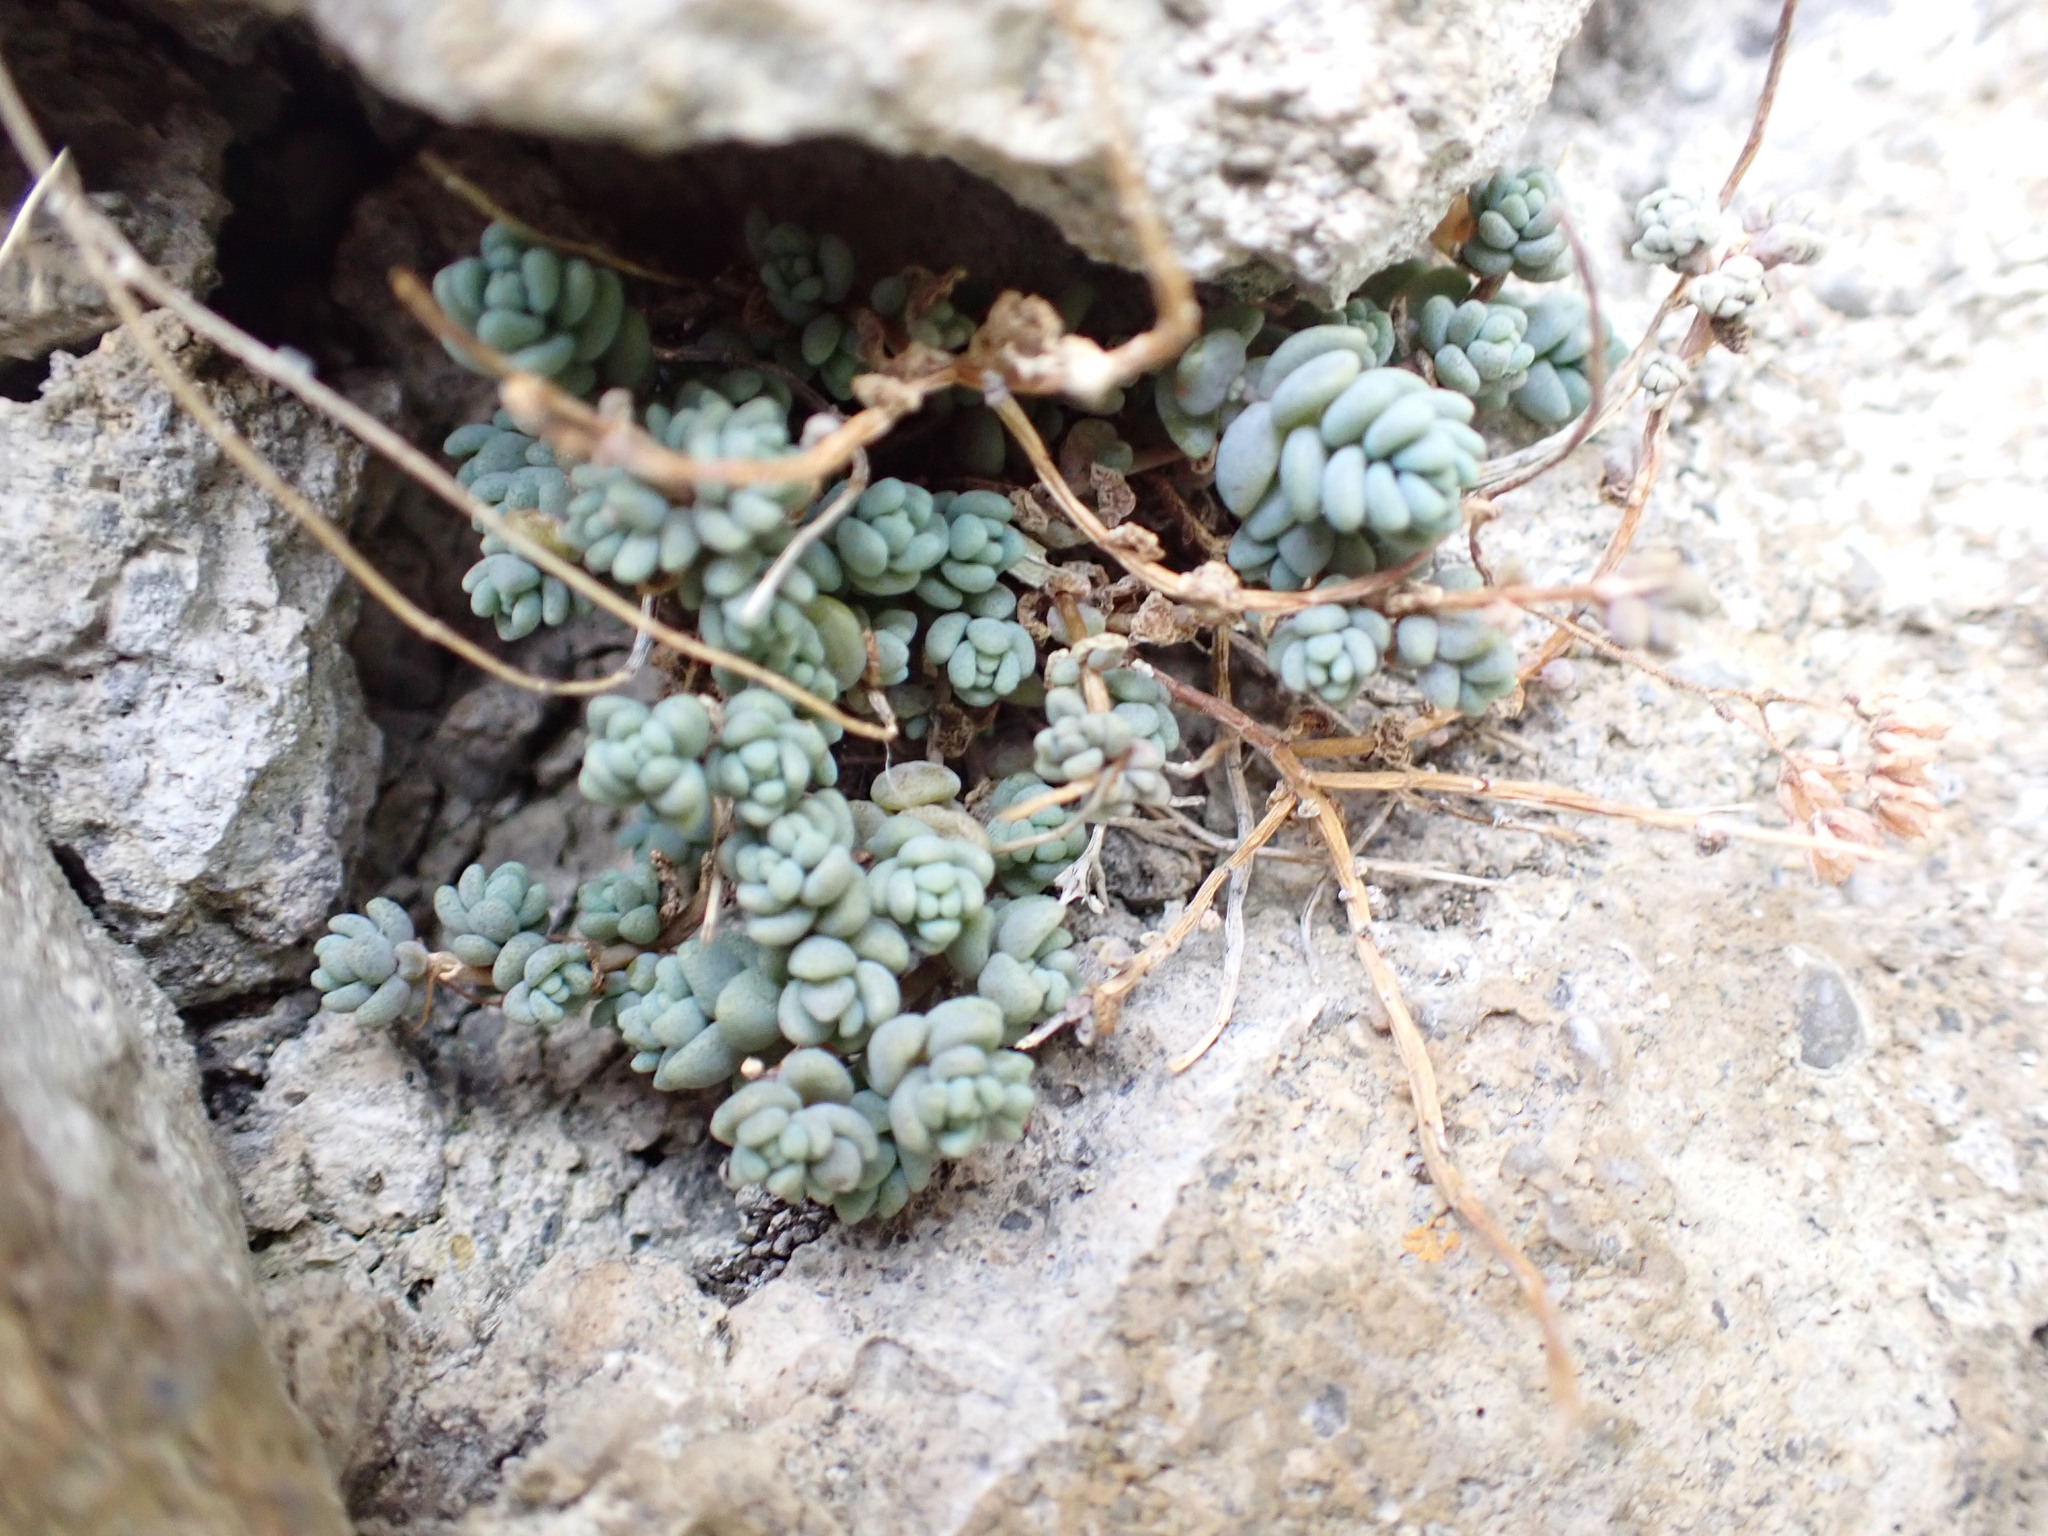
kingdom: Plantae
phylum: Tracheophyta
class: Magnoliopsida
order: Saxifragales
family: Crassulaceae
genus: Sedum
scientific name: Sedum dasyphyllum
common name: Thick-leaf stonecrop
